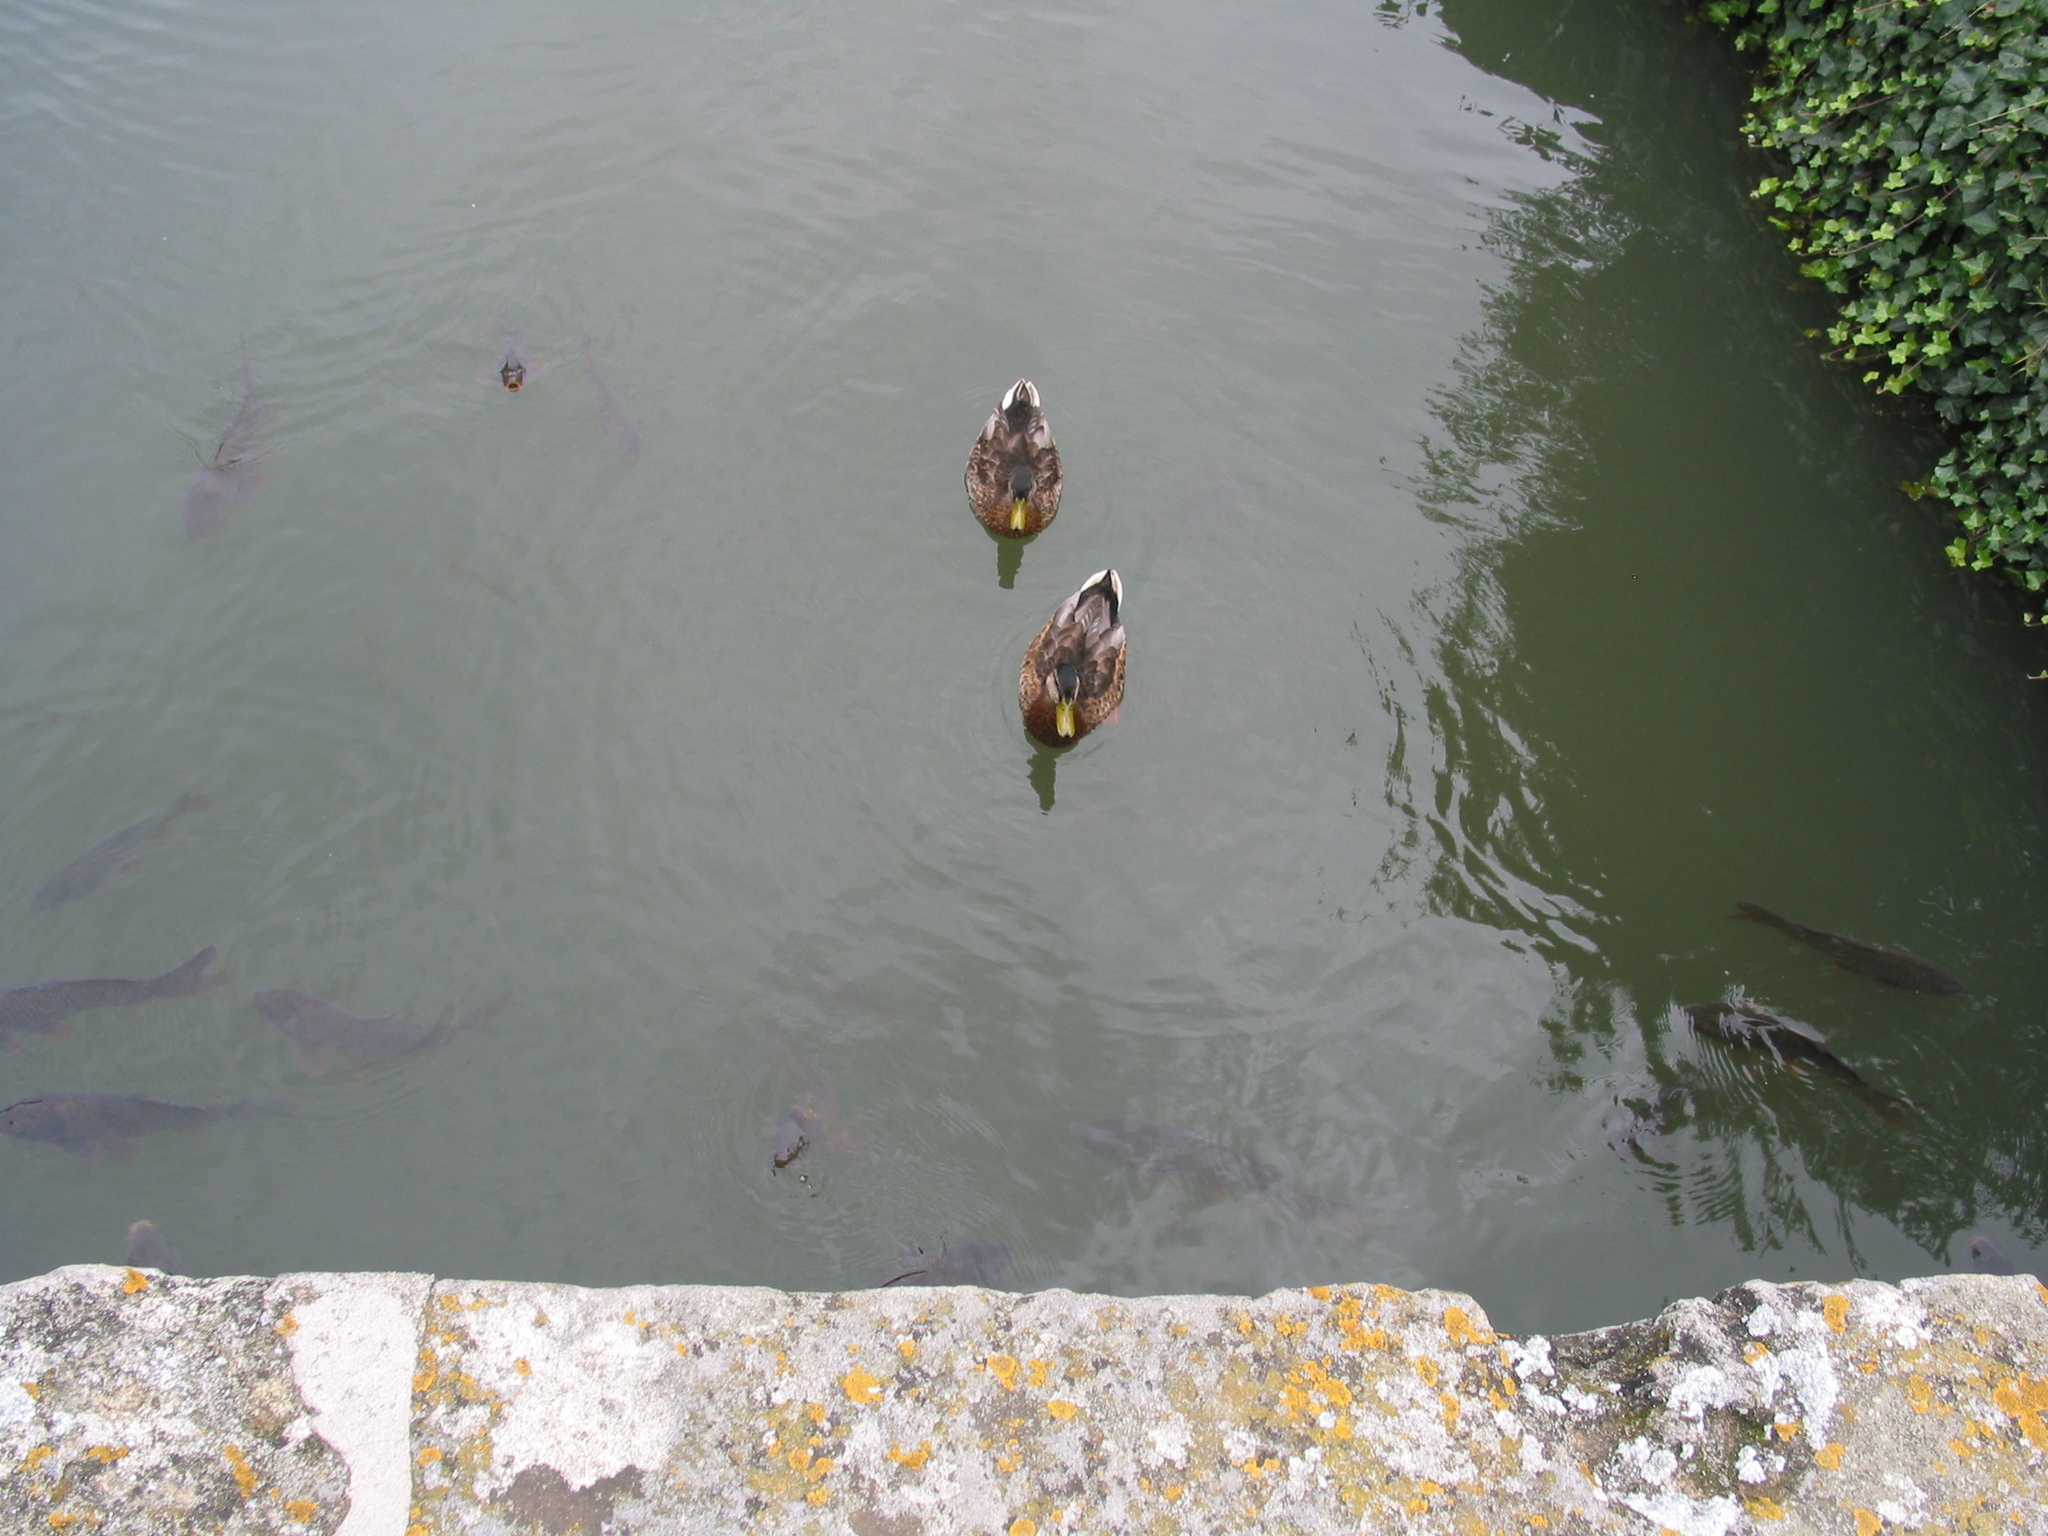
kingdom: Animalia
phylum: Chordata
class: Aves
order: Anseriformes
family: Anatidae
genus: Anas
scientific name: Anas platyrhynchos
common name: Mallard
